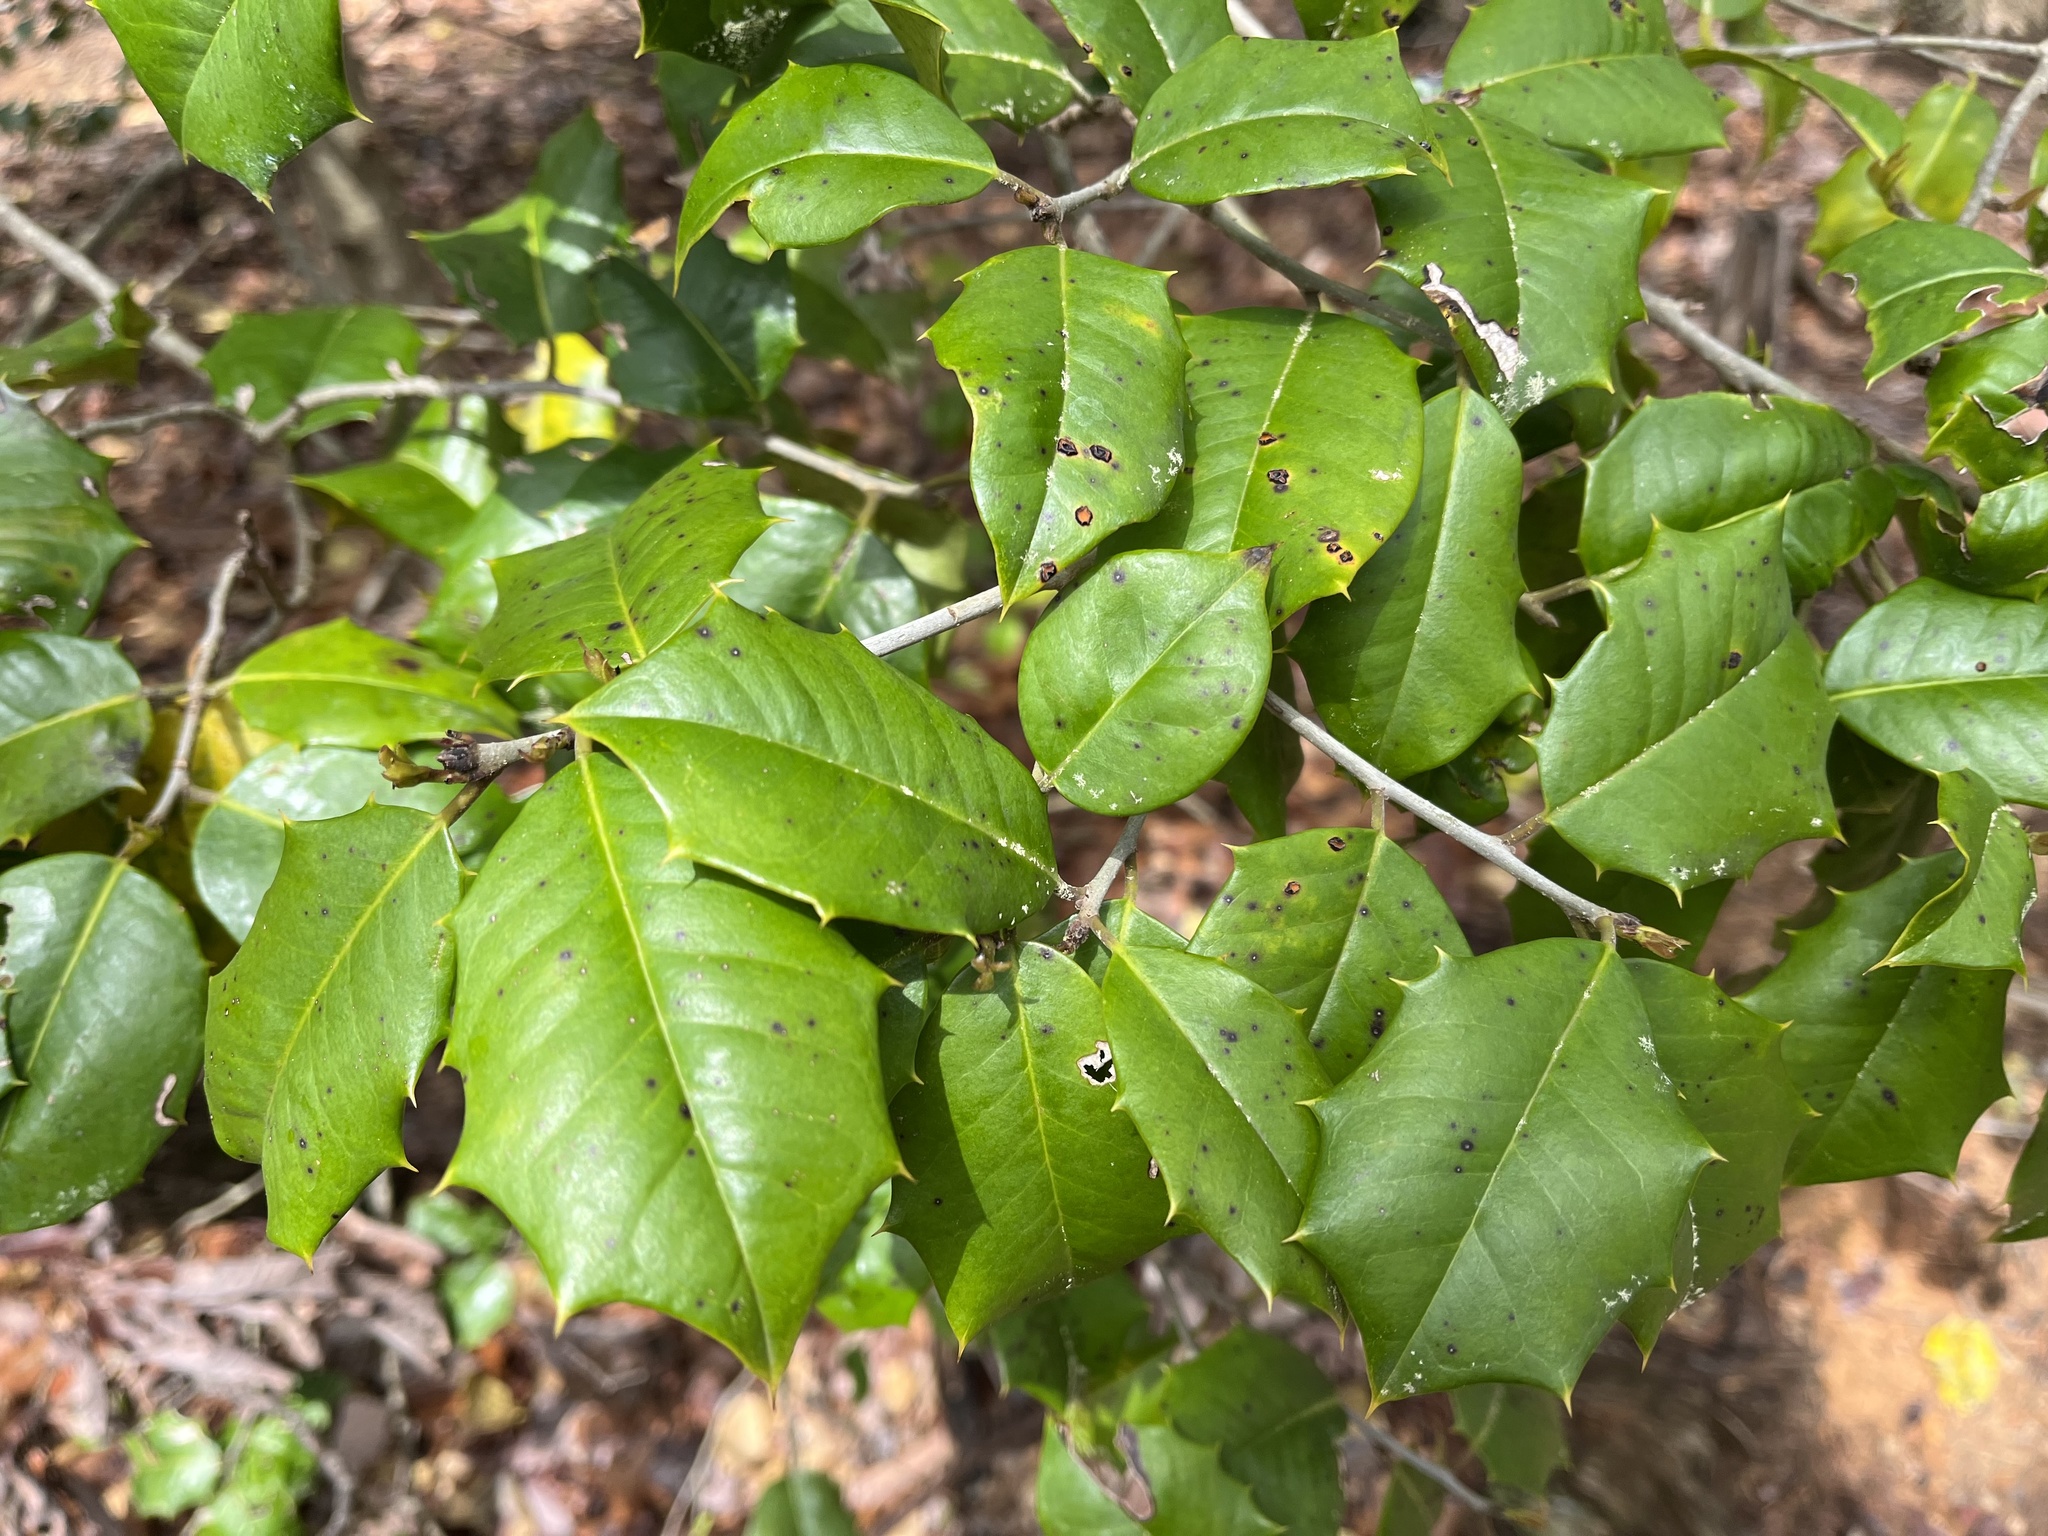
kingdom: Plantae
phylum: Tracheophyta
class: Magnoliopsida
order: Aquifoliales
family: Aquifoliaceae
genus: Ilex
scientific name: Ilex opaca
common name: American holly
